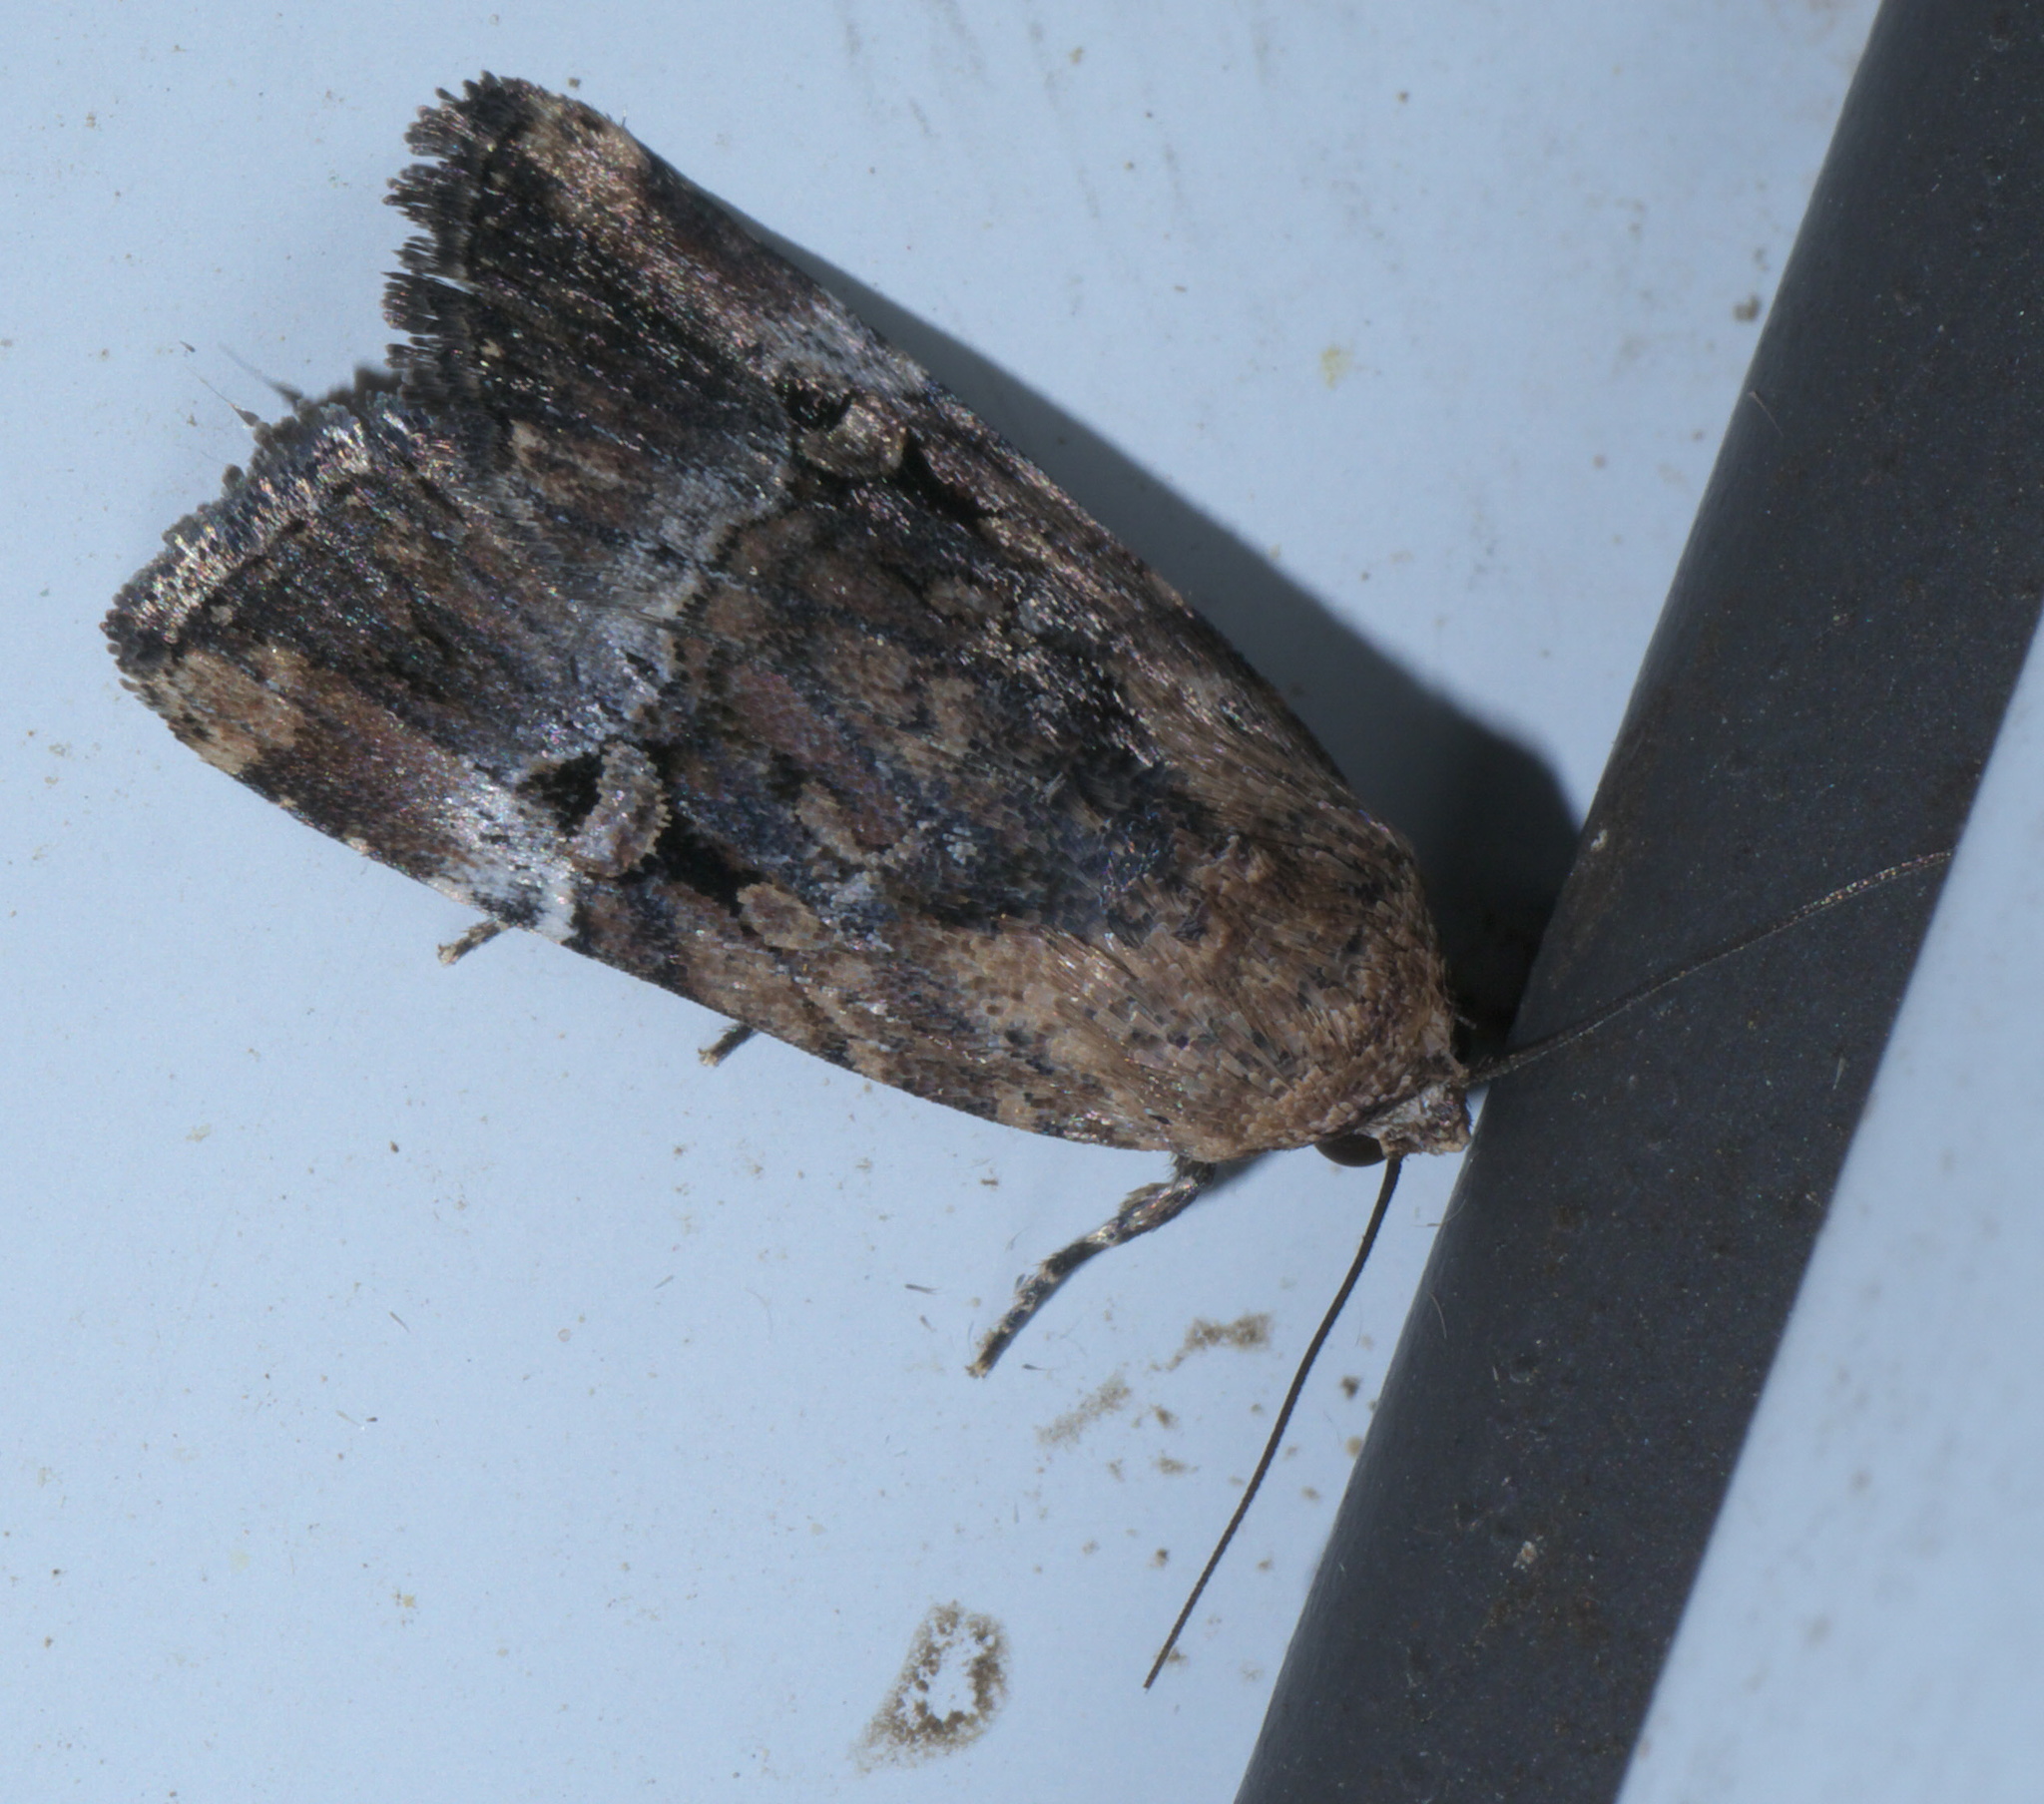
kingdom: Animalia
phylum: Arthropoda
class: Insecta
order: Lepidoptera
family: Noctuidae
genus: Elaphria
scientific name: Elaphria chalcedonia
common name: Chalcedony midget
